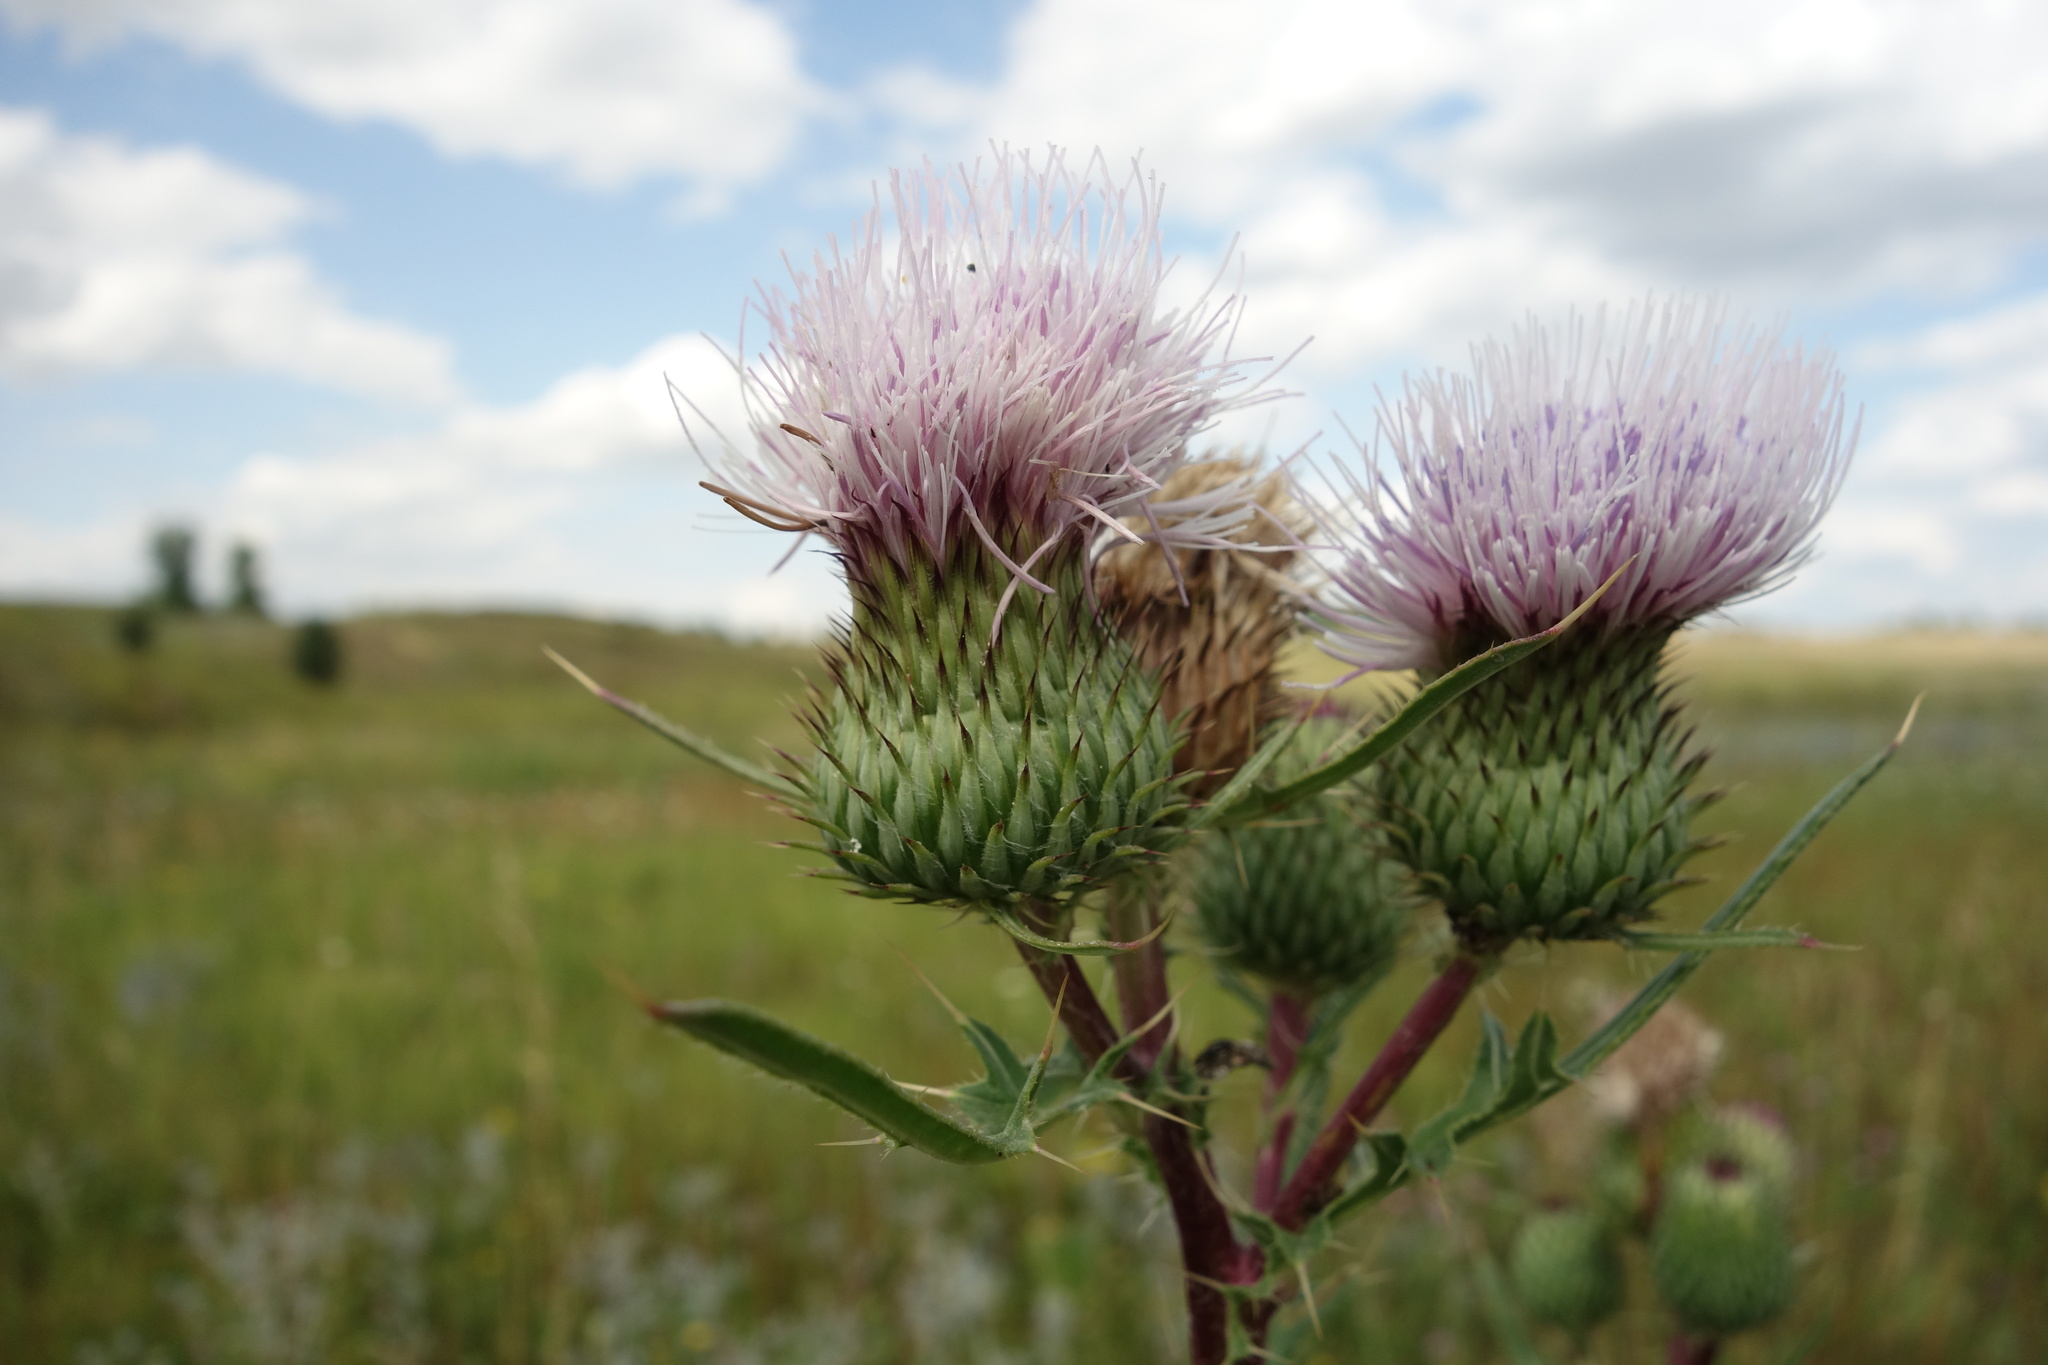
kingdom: Plantae
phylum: Tracheophyta
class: Magnoliopsida
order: Asterales
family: Asteraceae
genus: Cirsium
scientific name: Cirsium vulgare
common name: Bull thistle
